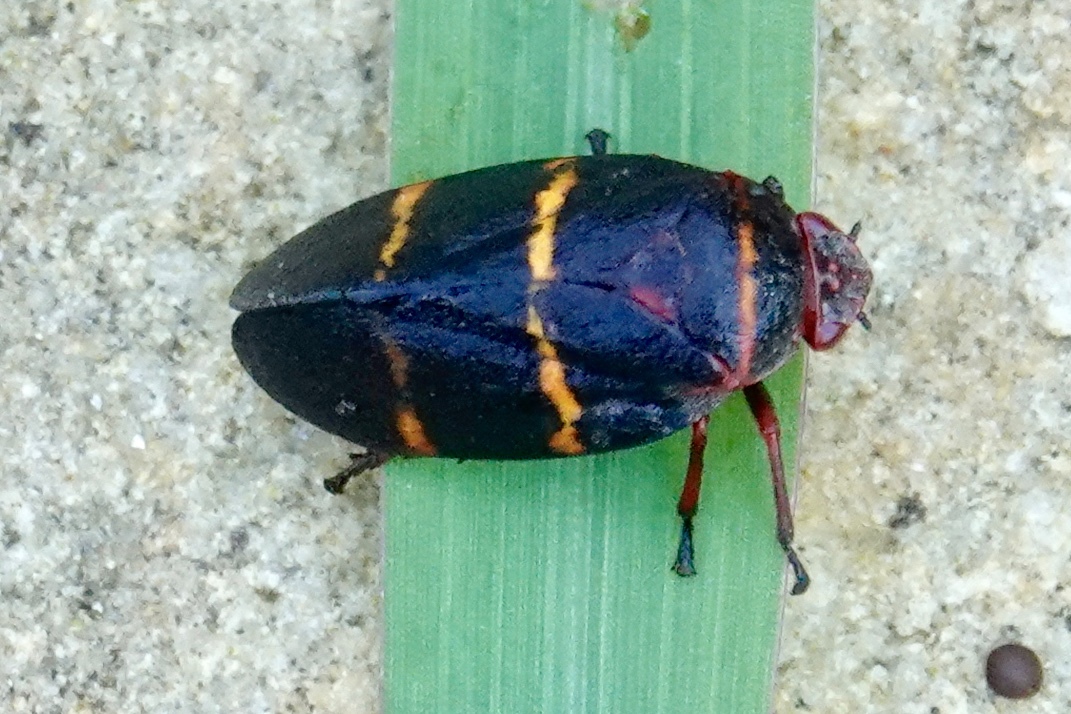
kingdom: Animalia
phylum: Arthropoda
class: Insecta
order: Hemiptera
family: Cercopidae
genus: Prosapia
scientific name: Prosapia bicincta
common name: Twolined spittlebug
